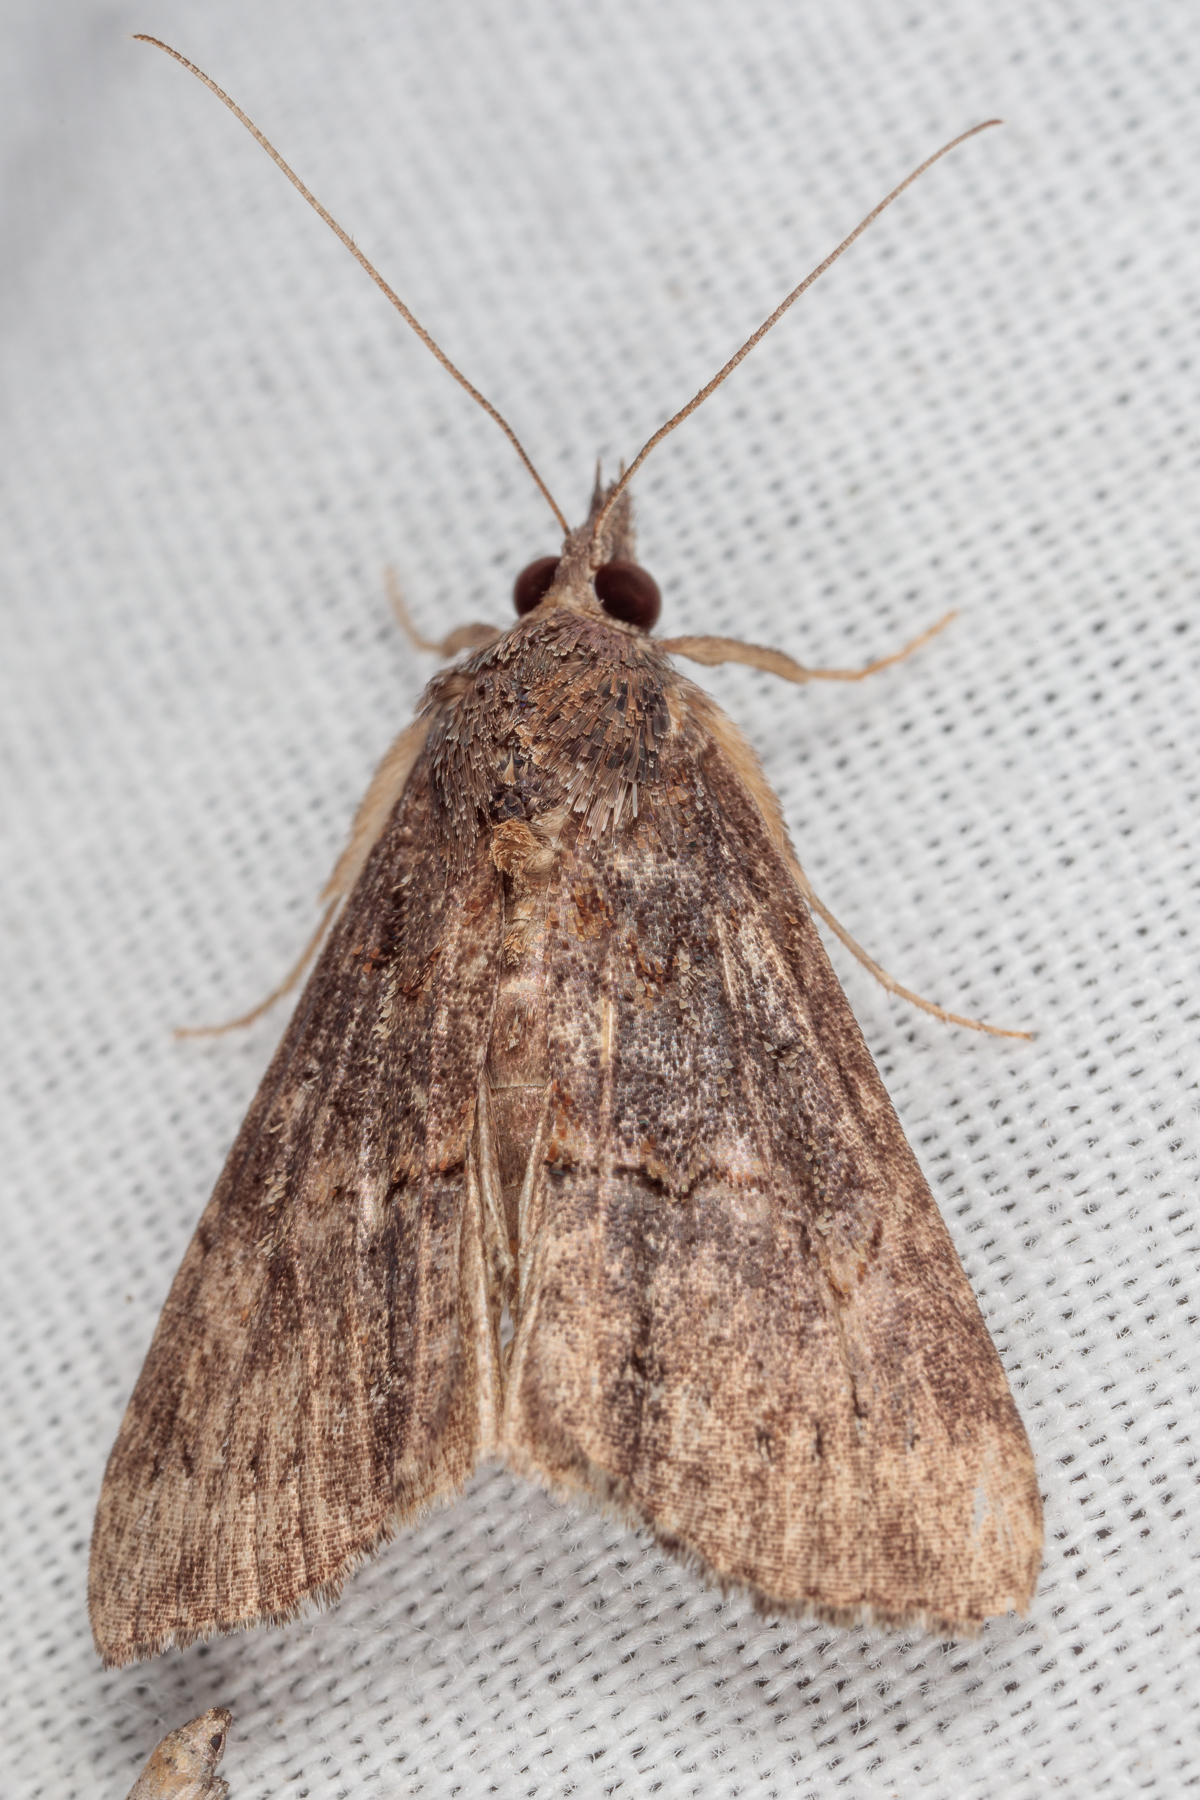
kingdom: Animalia
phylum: Arthropoda
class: Insecta
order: Lepidoptera
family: Erebidae
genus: Hypena
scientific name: Hypena scabra
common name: Green cloverworm
